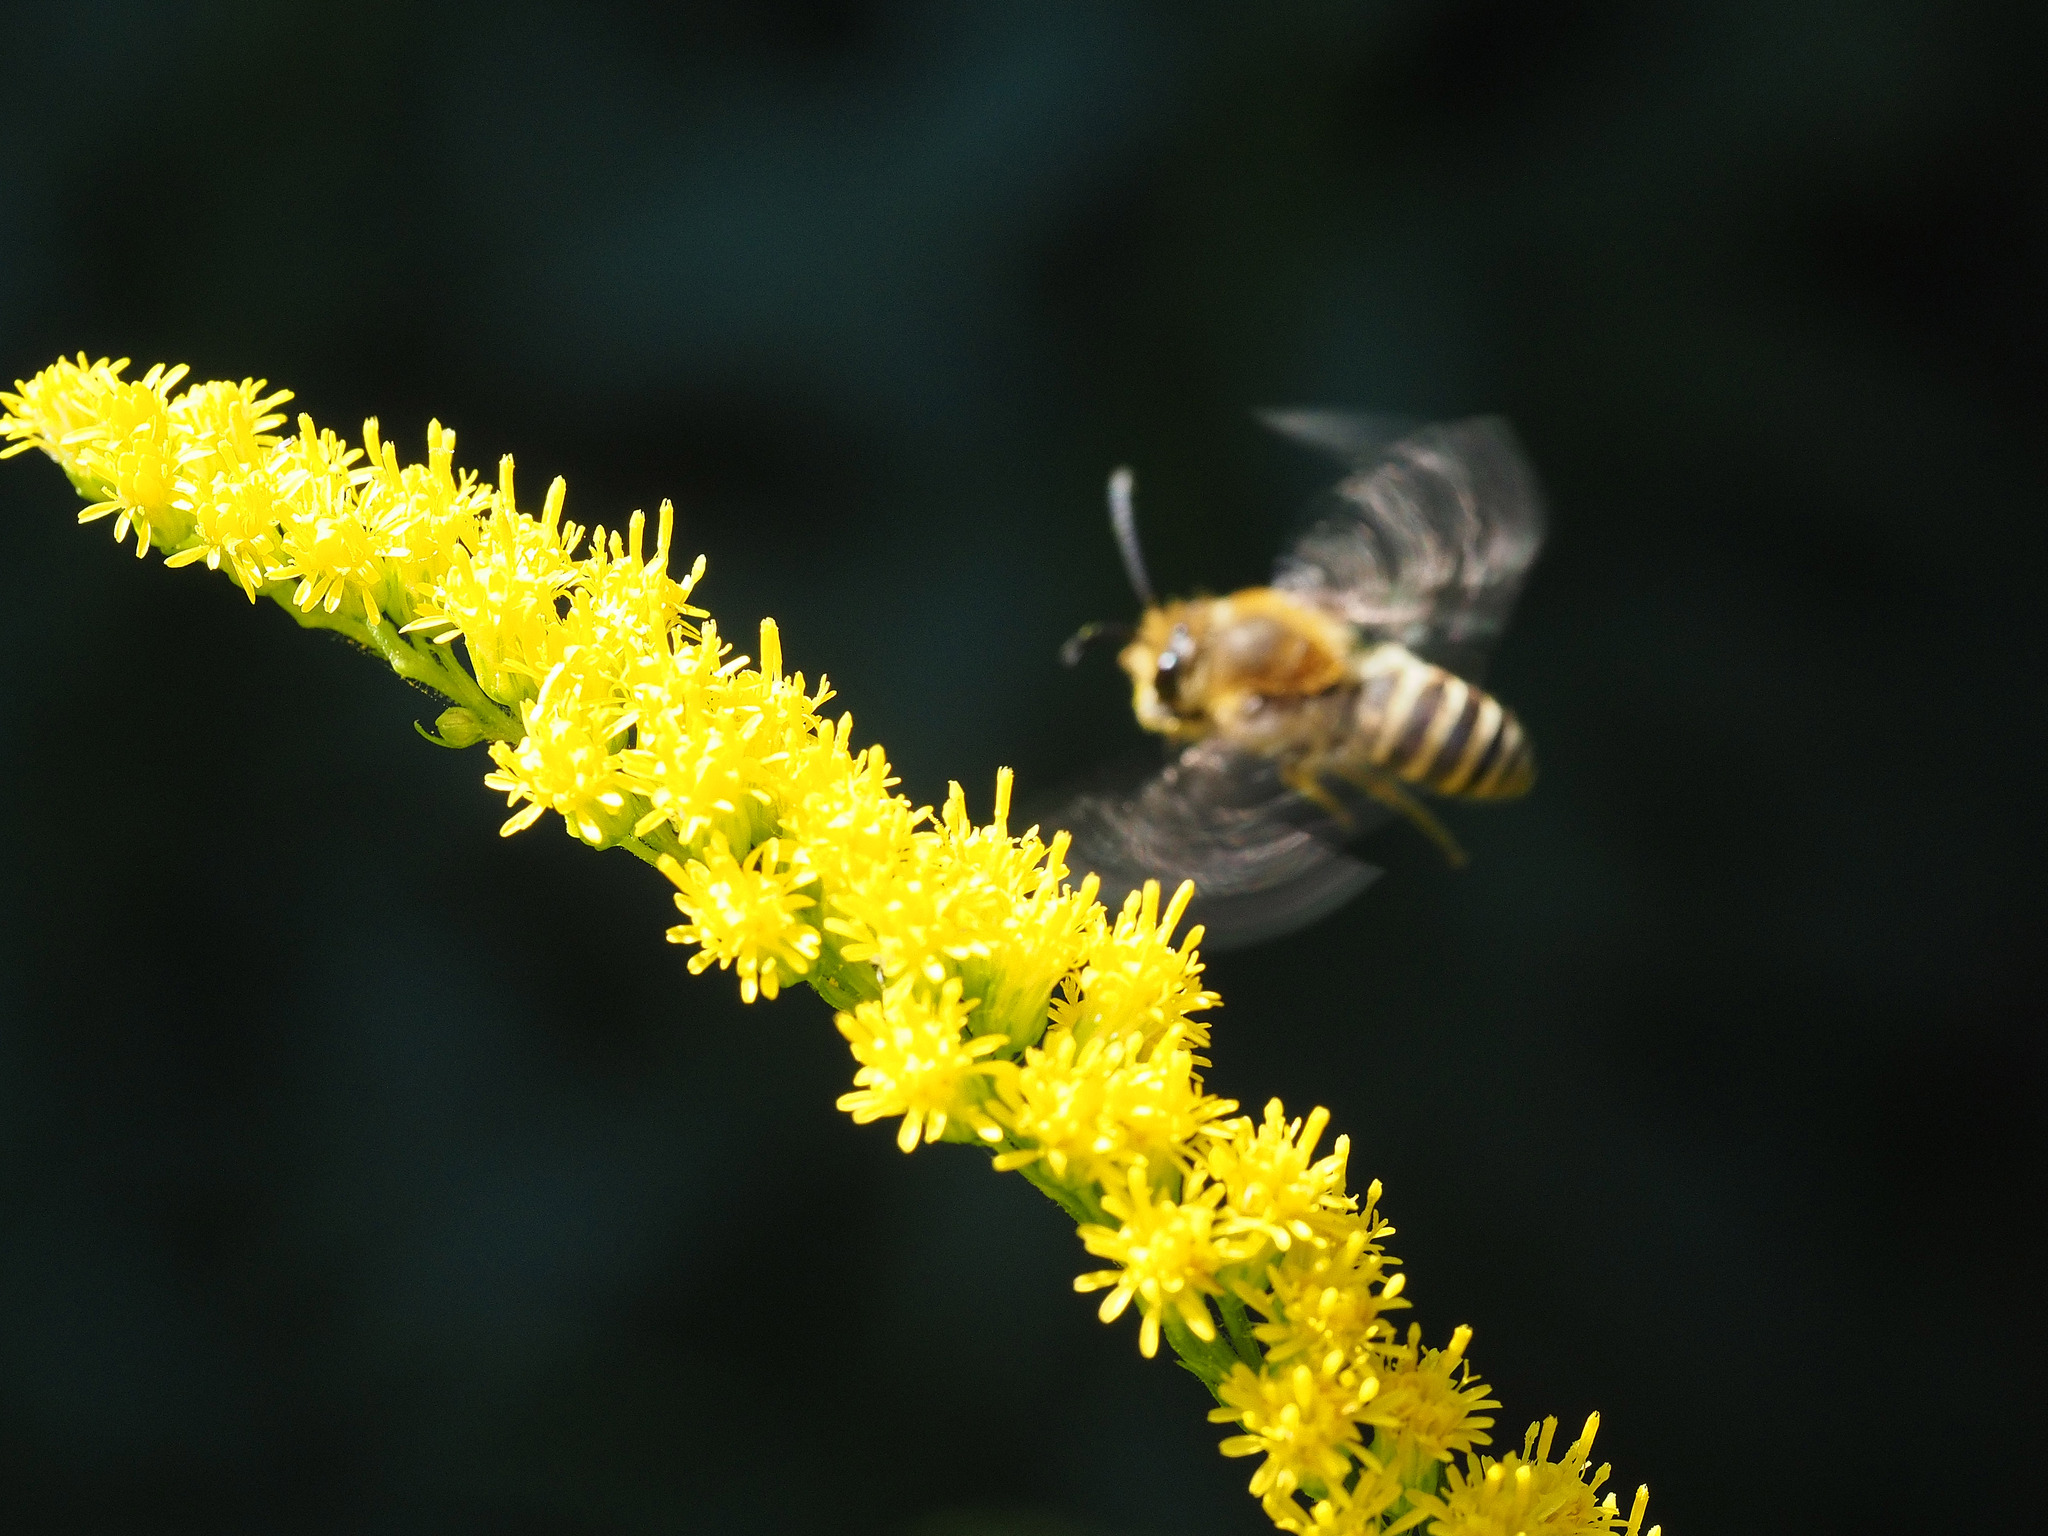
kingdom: Animalia
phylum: Arthropoda
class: Insecta
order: Hymenoptera
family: Colletidae
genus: Colletes
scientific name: Colletes hederae
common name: Ivy bee
